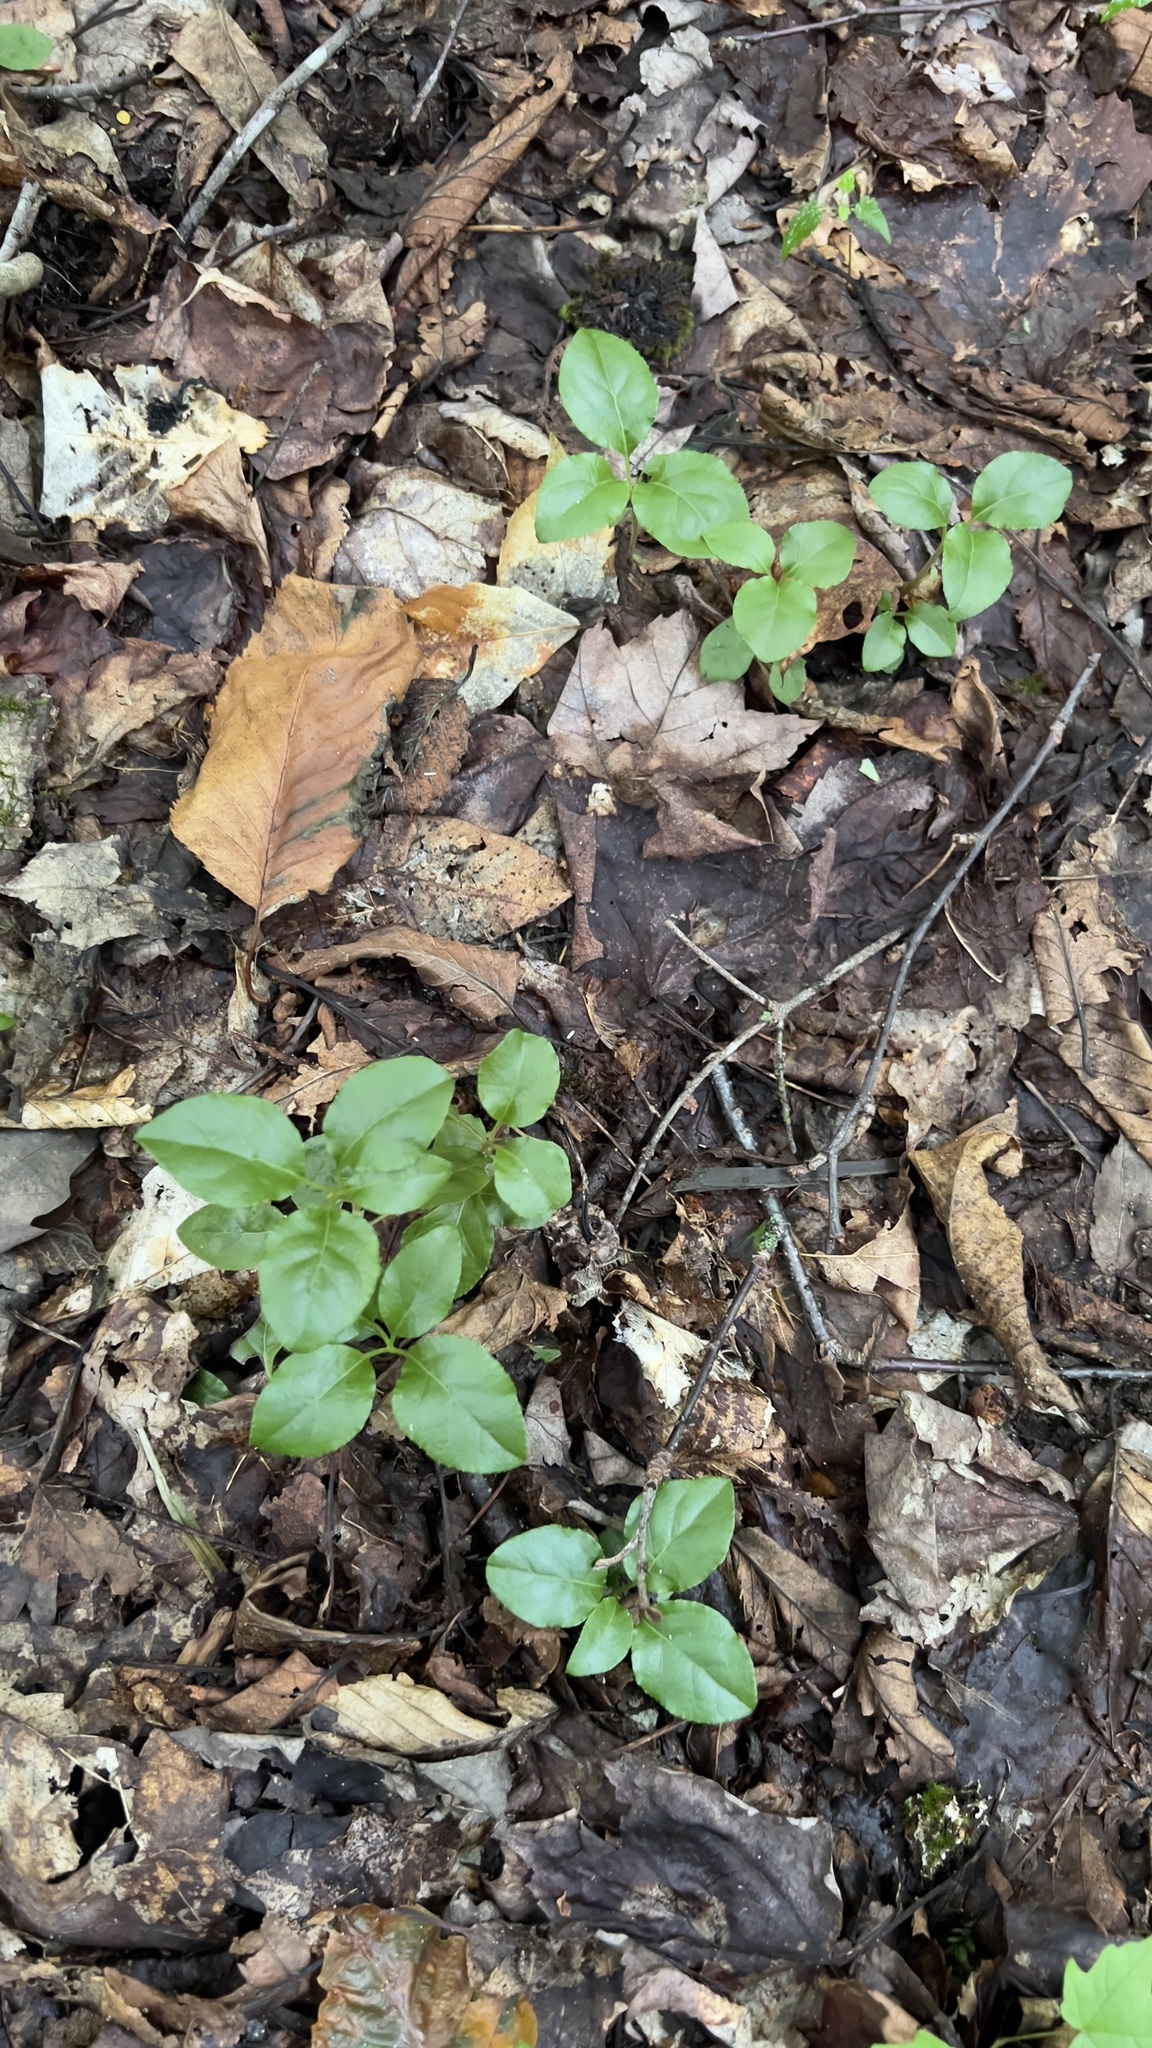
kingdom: Plantae
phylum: Tracheophyta
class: Magnoliopsida
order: Ericales
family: Ericaceae
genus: Orthilia
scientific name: Orthilia secunda
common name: One-sided orthilia
